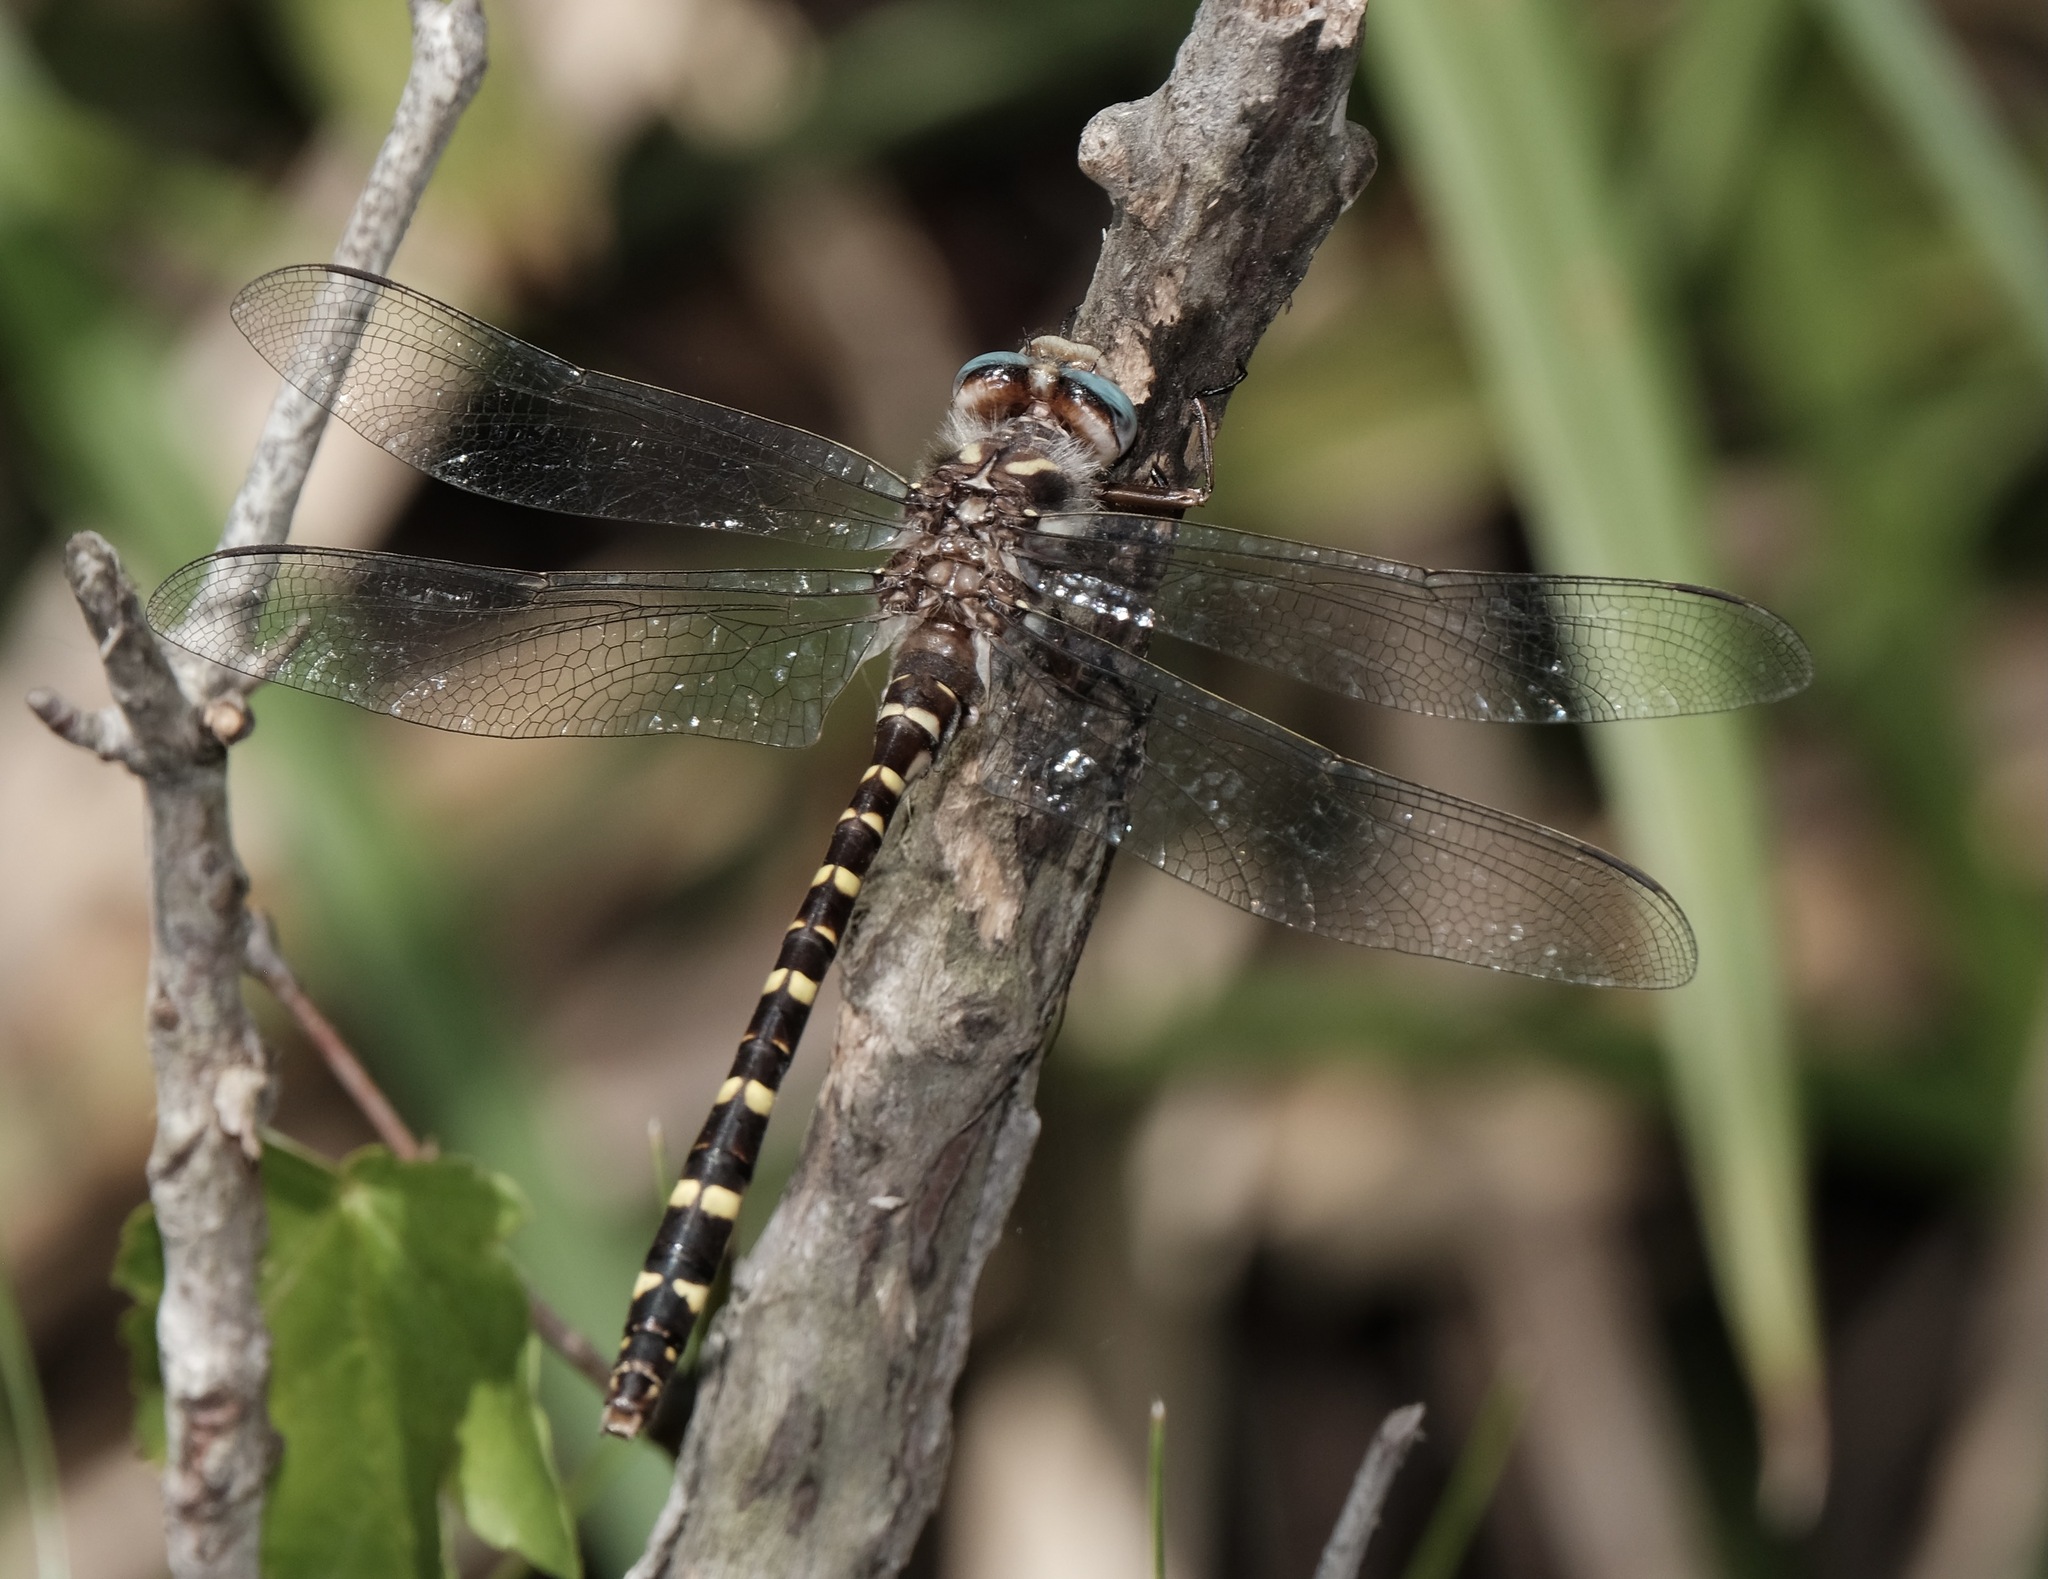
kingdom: Animalia
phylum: Arthropoda
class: Insecta
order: Odonata
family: Cordulegastridae
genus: Cordulegaster
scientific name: Cordulegaster sarracenia
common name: Sarracenia spiketail
